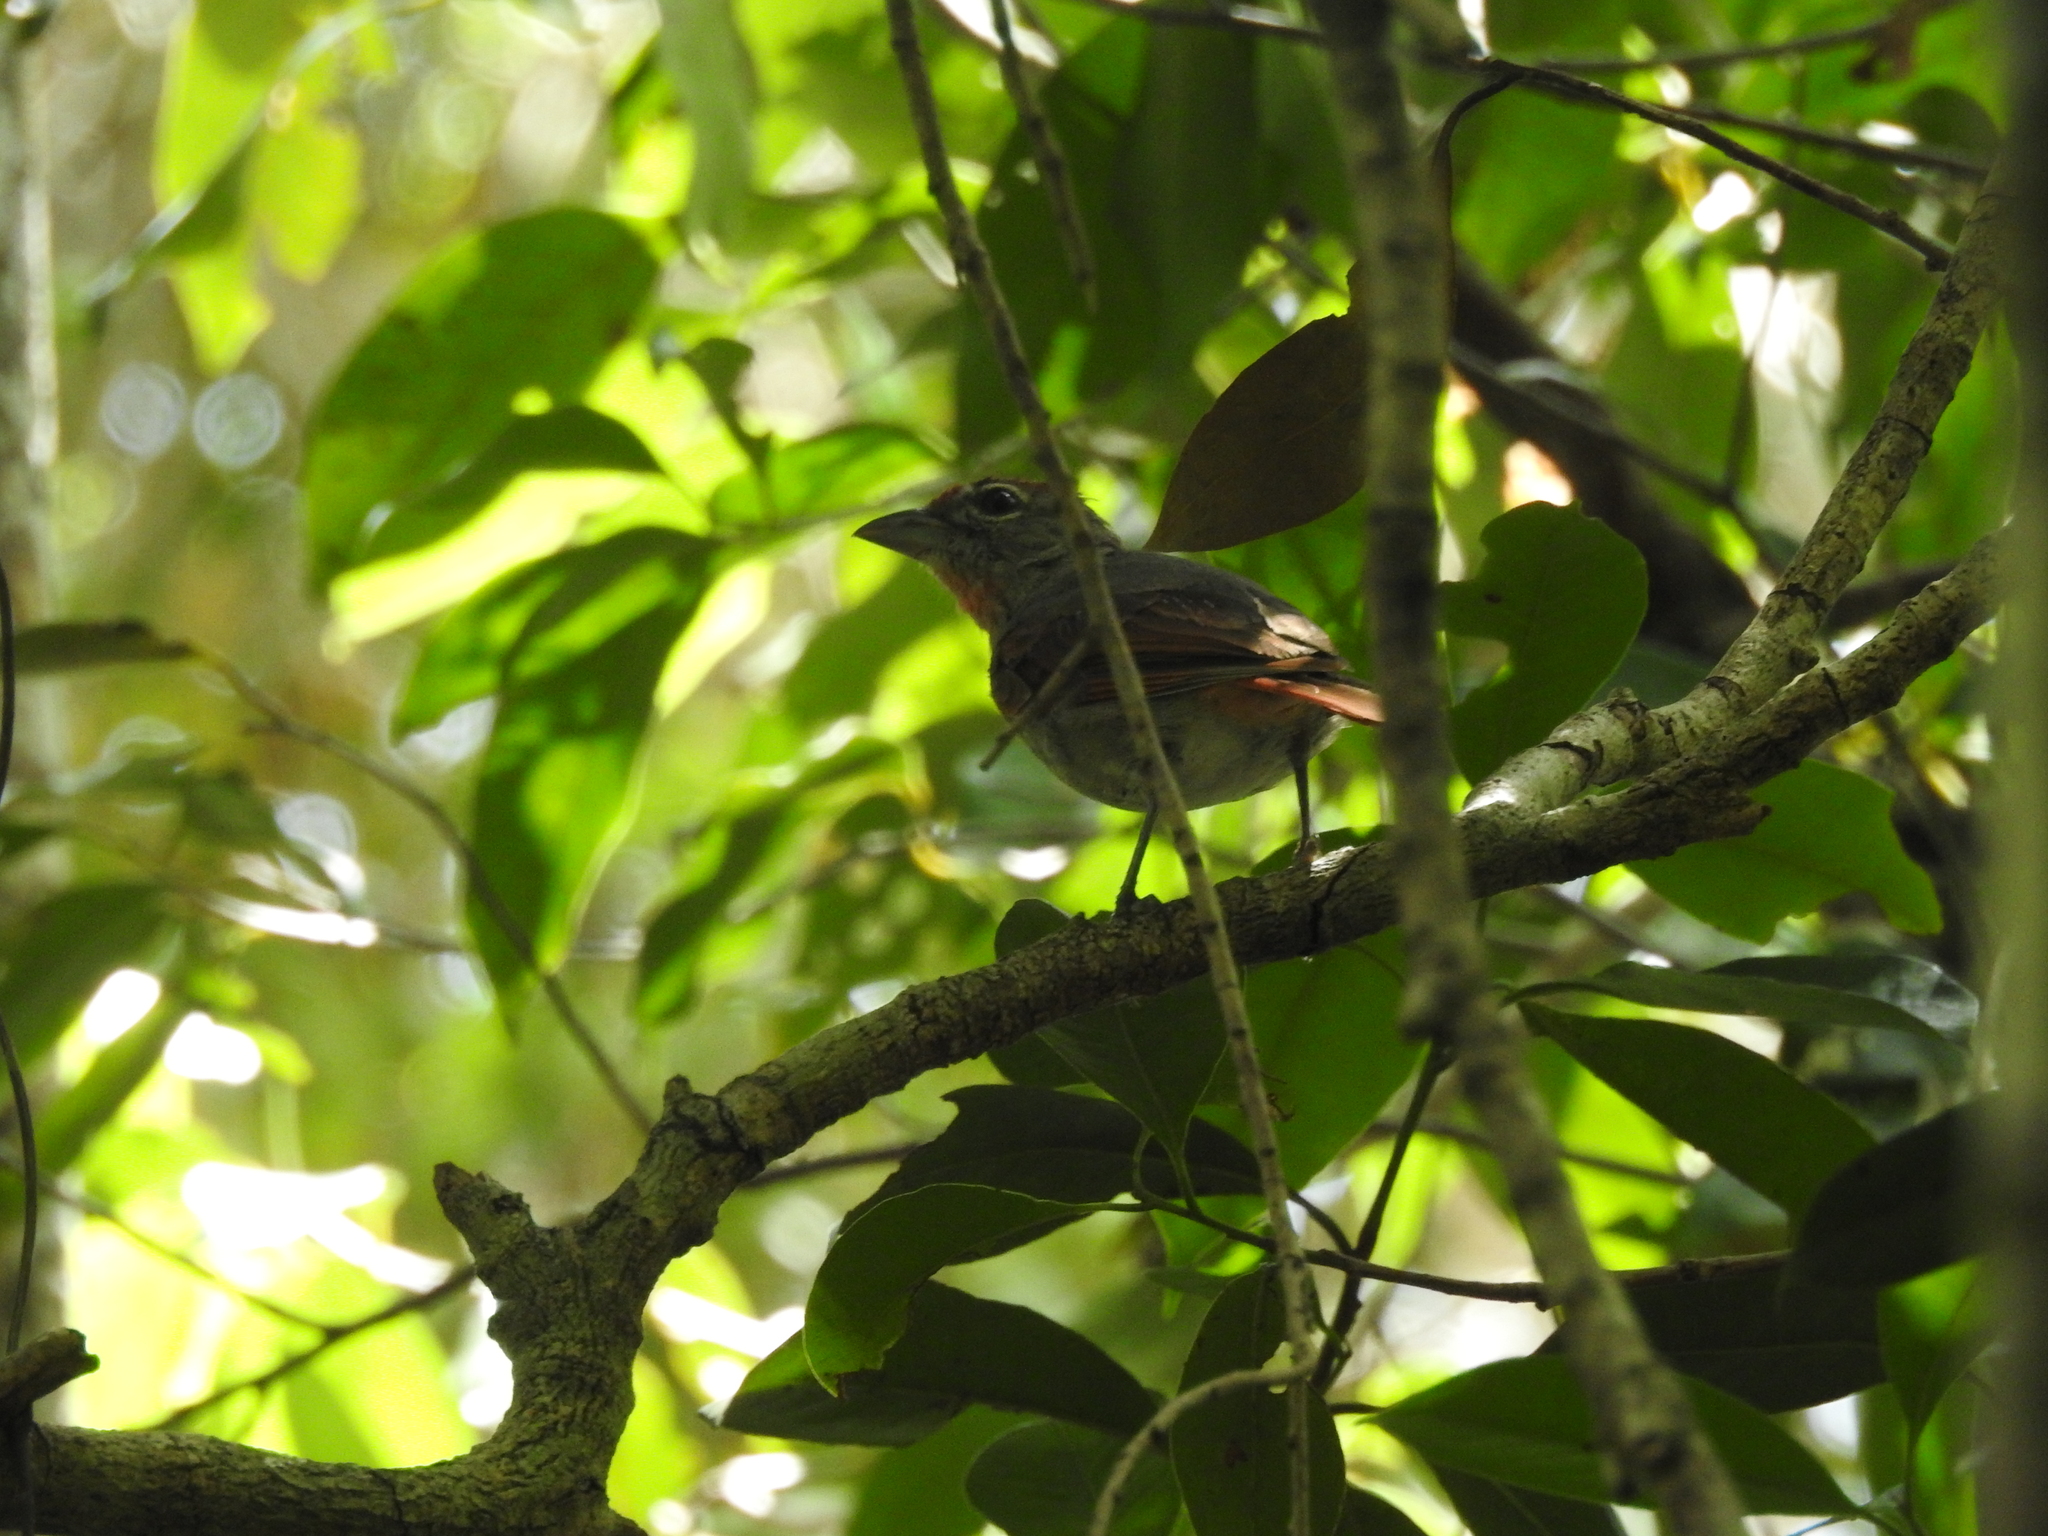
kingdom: Animalia
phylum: Chordata
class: Aves
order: Passeriformes
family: Cardinalidae
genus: Piranga
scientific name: Piranga roseogularis
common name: Rose-throated tanager
